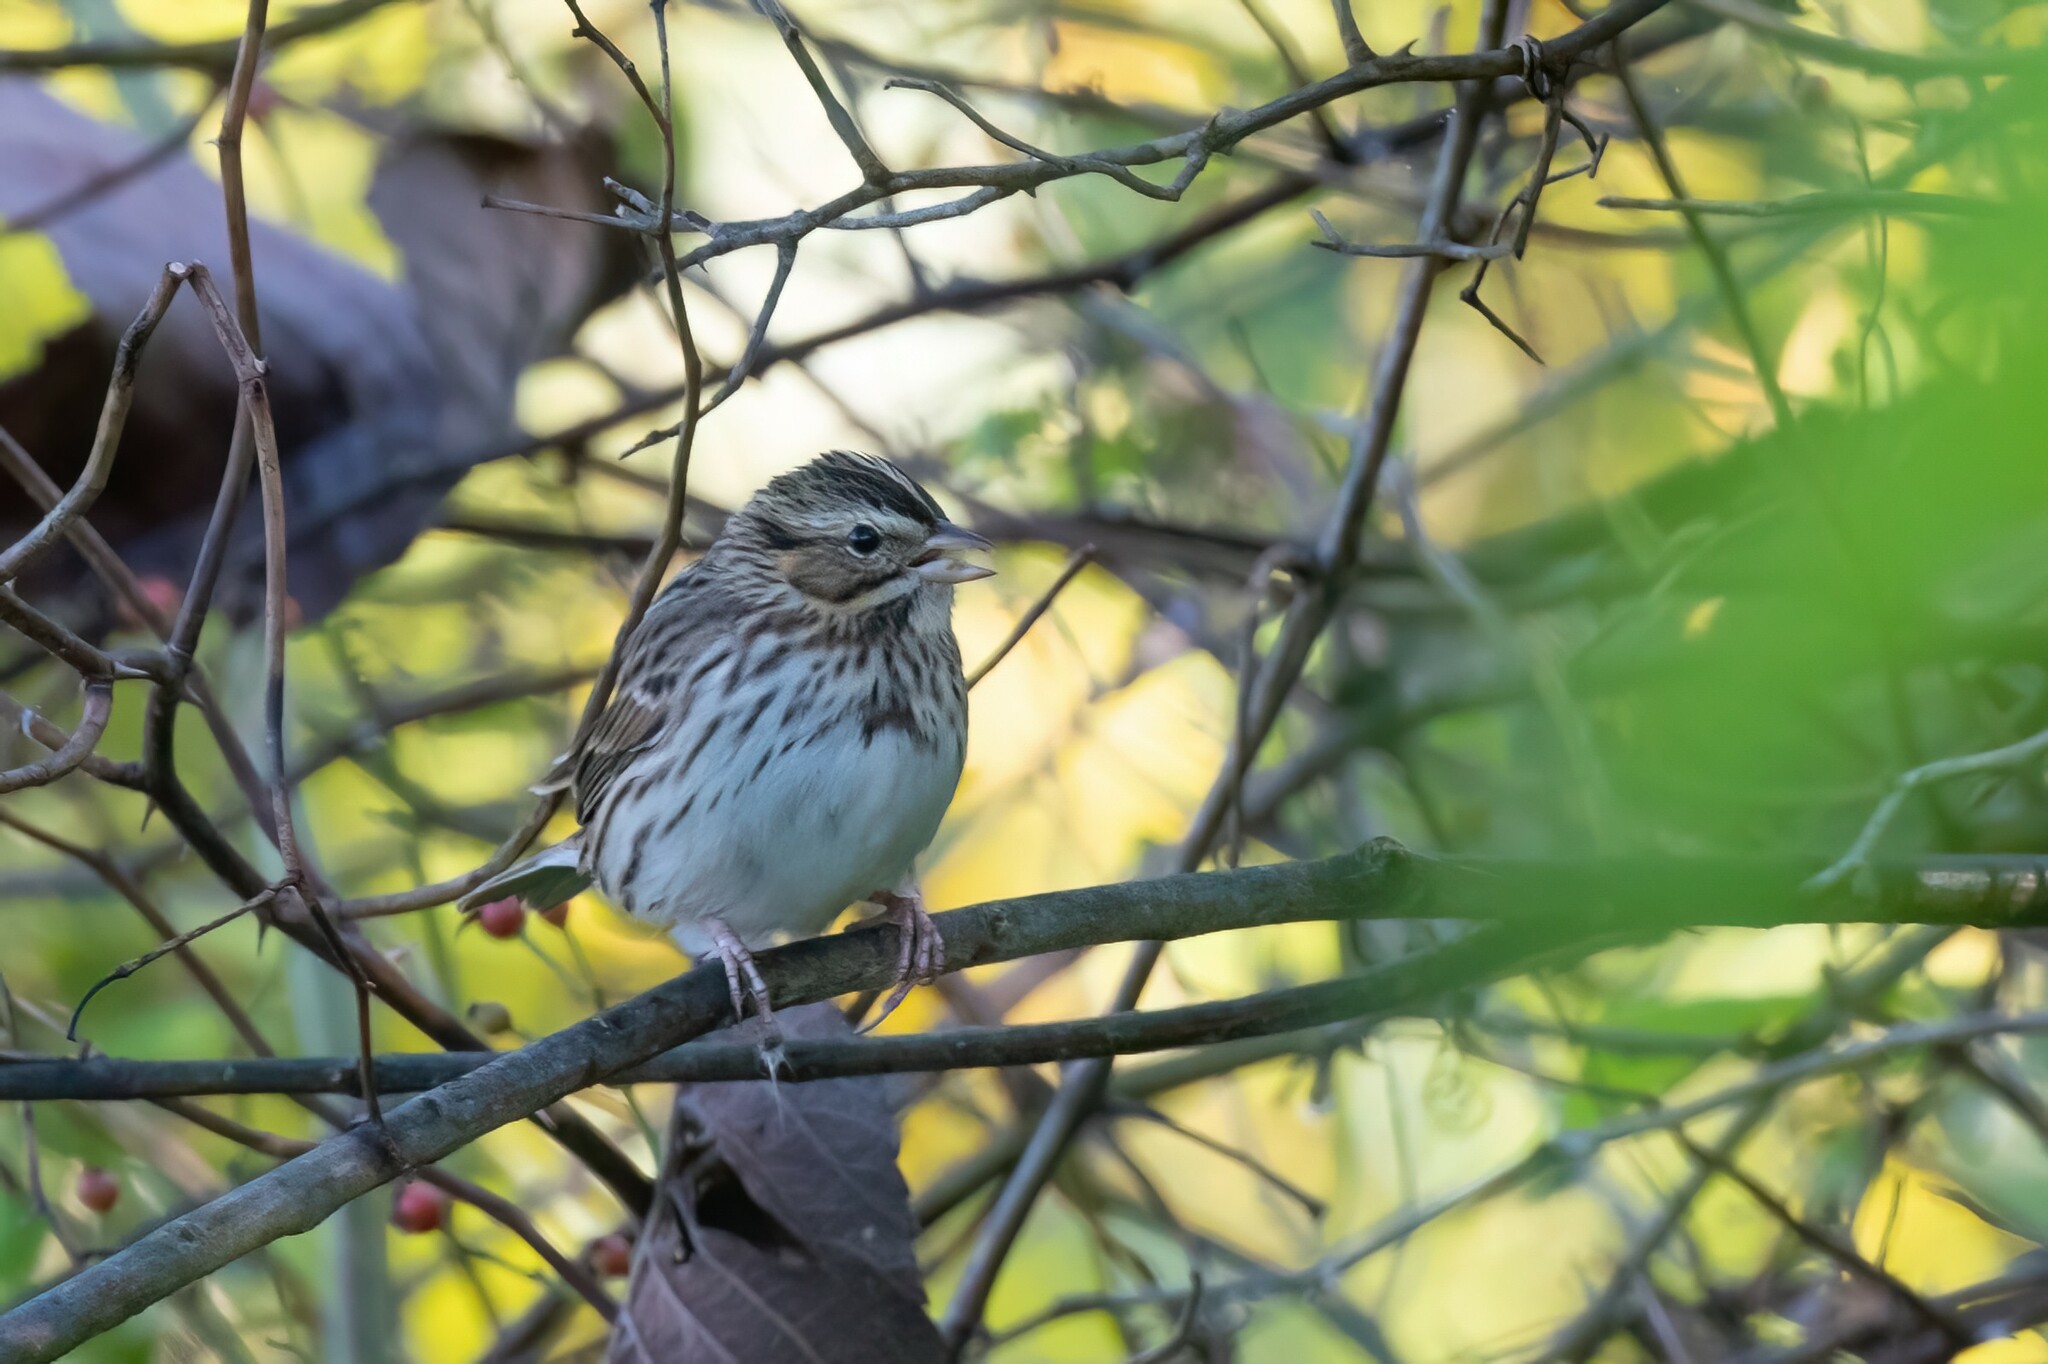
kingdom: Animalia
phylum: Chordata
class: Aves
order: Passeriformes
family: Passerellidae
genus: Passerculus
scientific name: Passerculus sandwichensis
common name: Savannah sparrow
